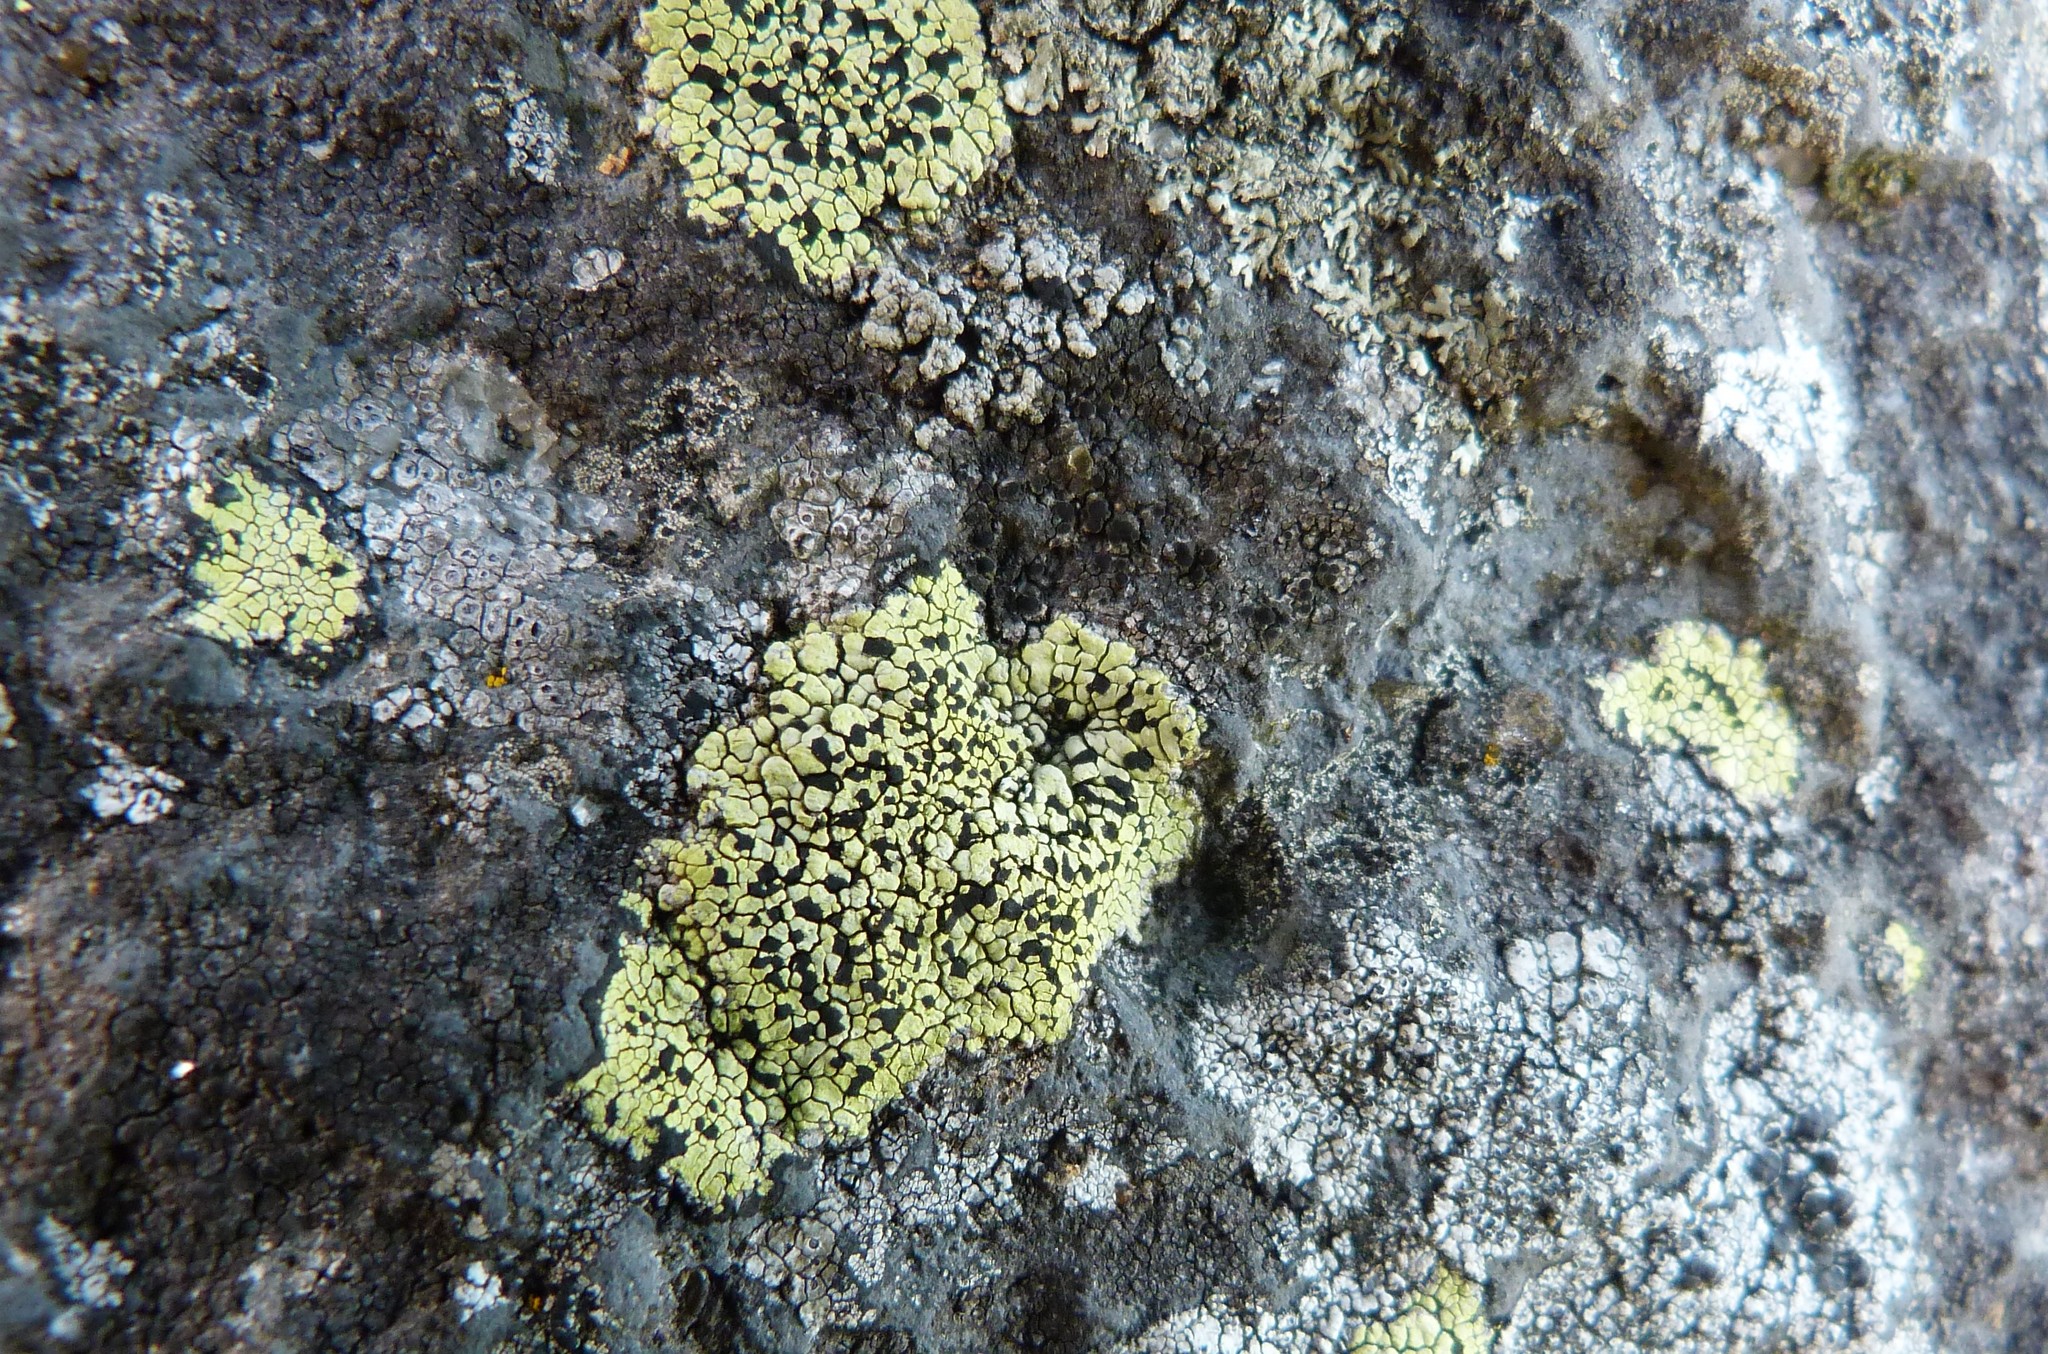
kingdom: Fungi
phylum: Ascomycota
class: Lecanoromycetes
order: Rhizocarpales
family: Rhizocarpaceae
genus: Rhizocarpon
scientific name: Rhizocarpon geographicum
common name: Yellow map lichen
